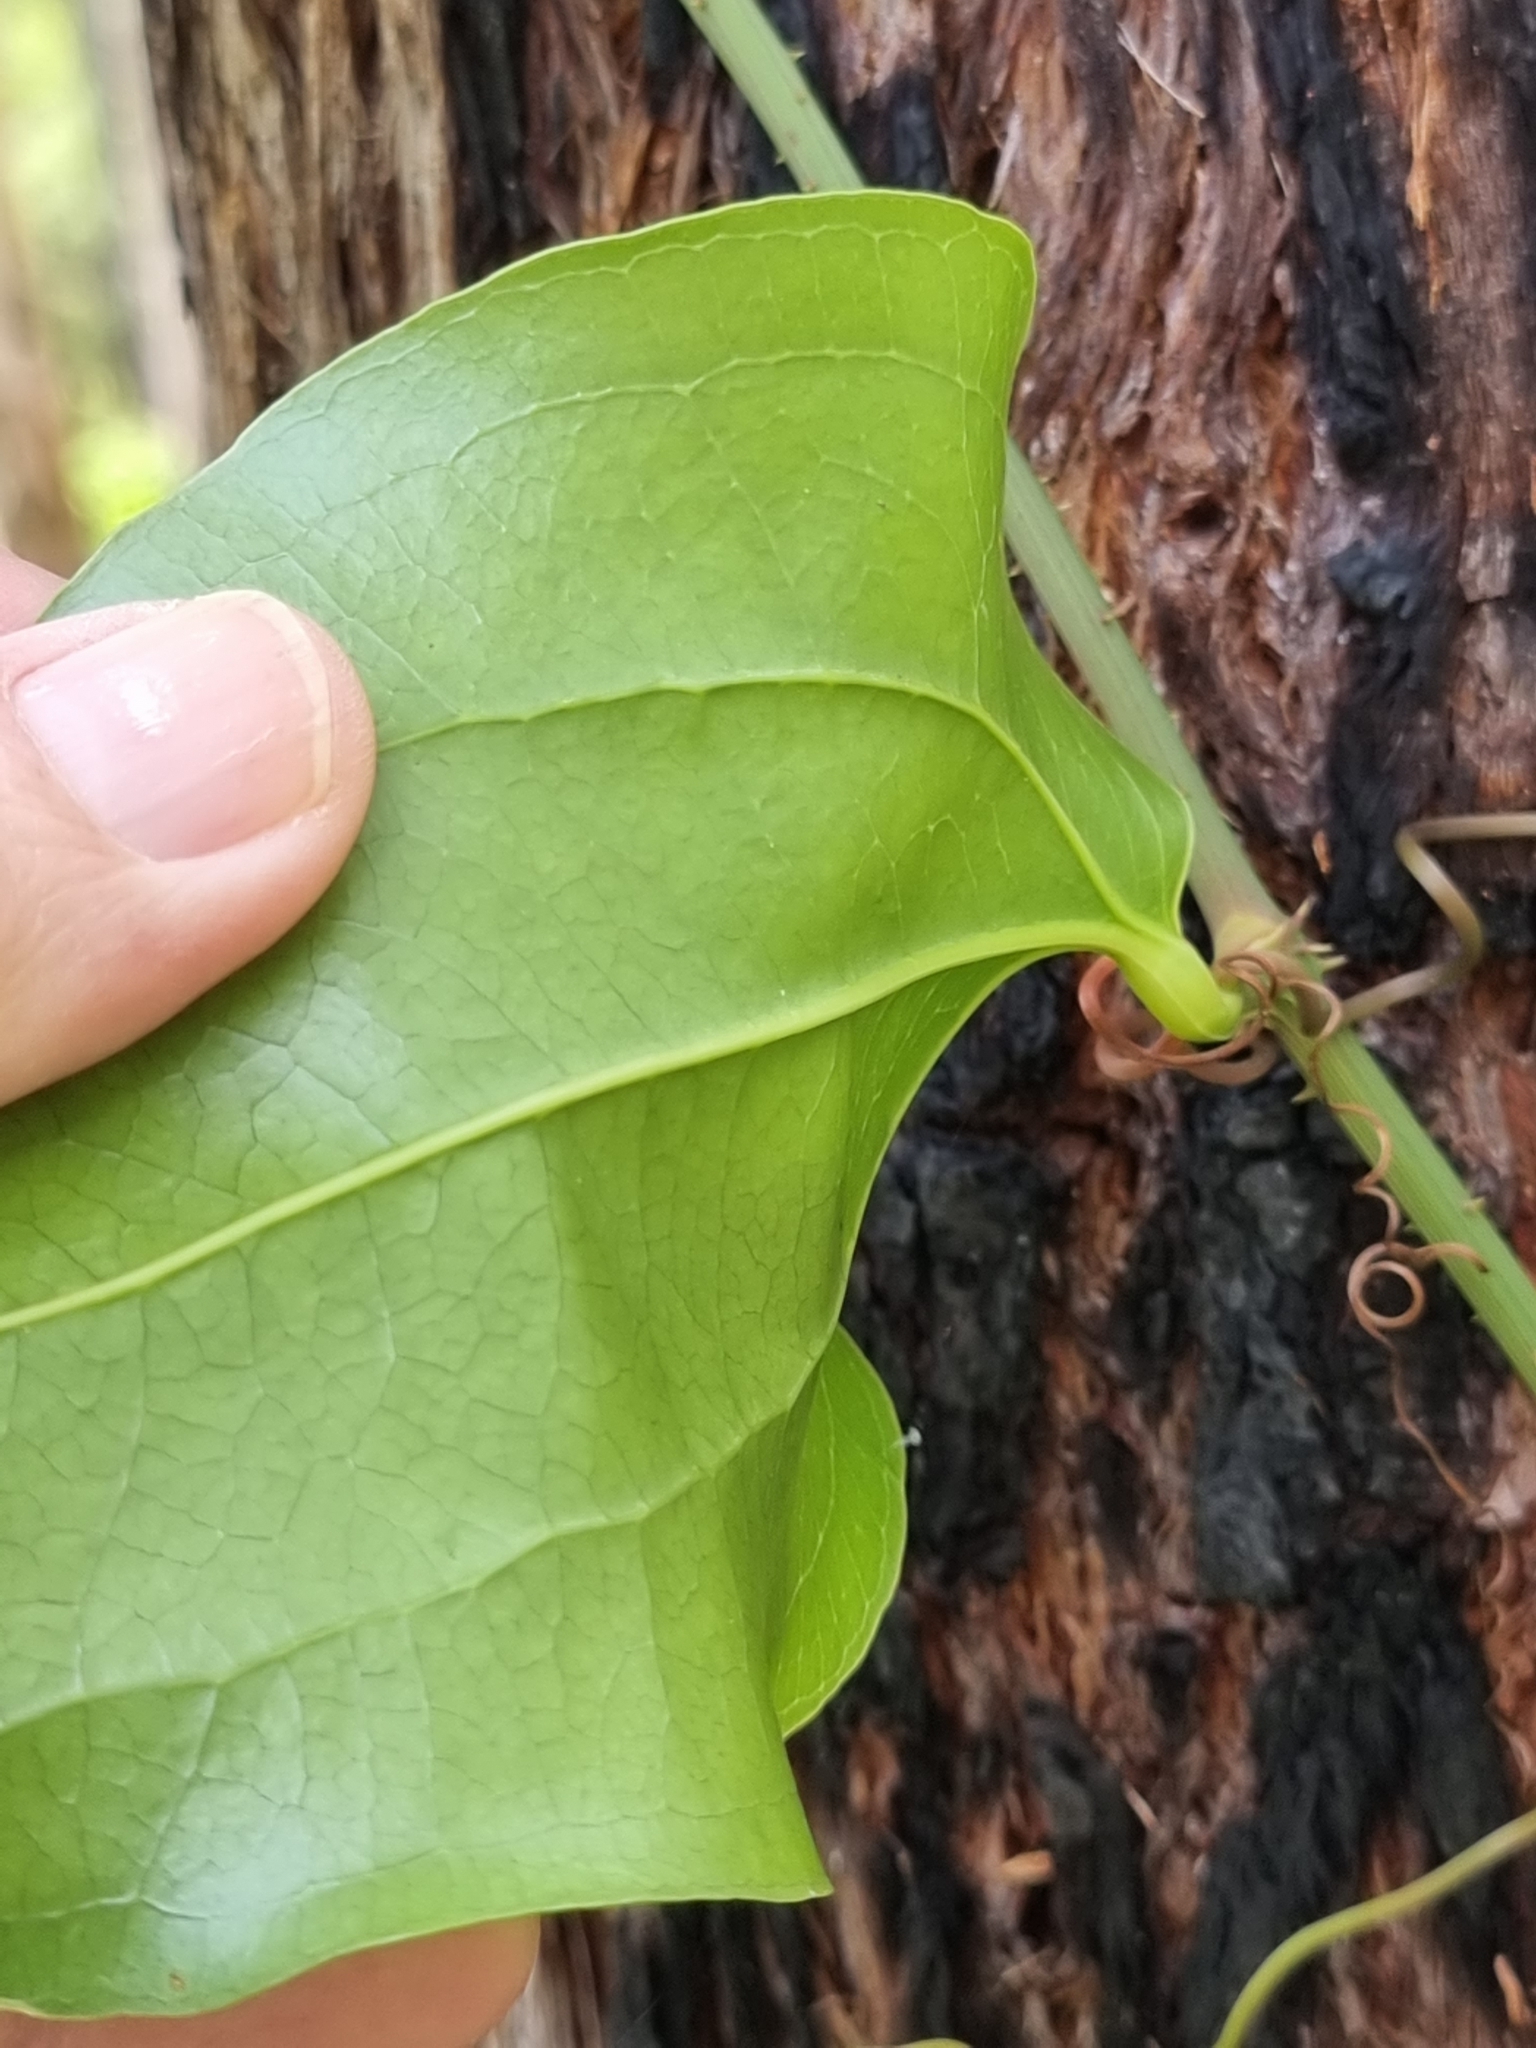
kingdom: Plantae
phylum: Tracheophyta
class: Liliopsida
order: Liliales
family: Smilacaceae
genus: Smilax
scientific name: Smilax australis
